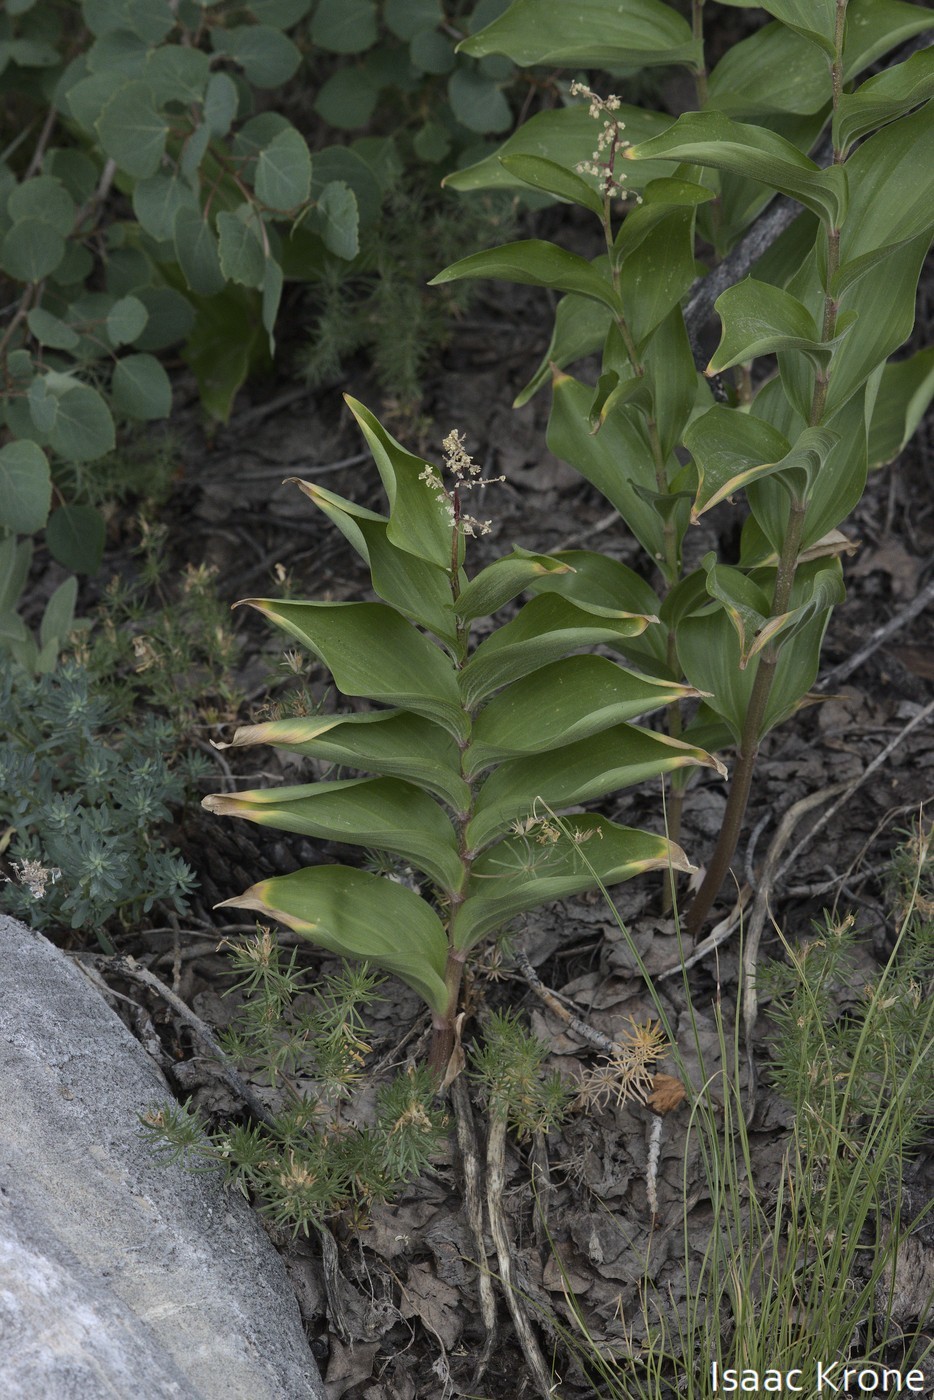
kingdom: Plantae
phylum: Tracheophyta
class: Liliopsida
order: Asparagales
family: Asparagaceae
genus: Maianthemum
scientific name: Maianthemum racemosum
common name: False spikenard
